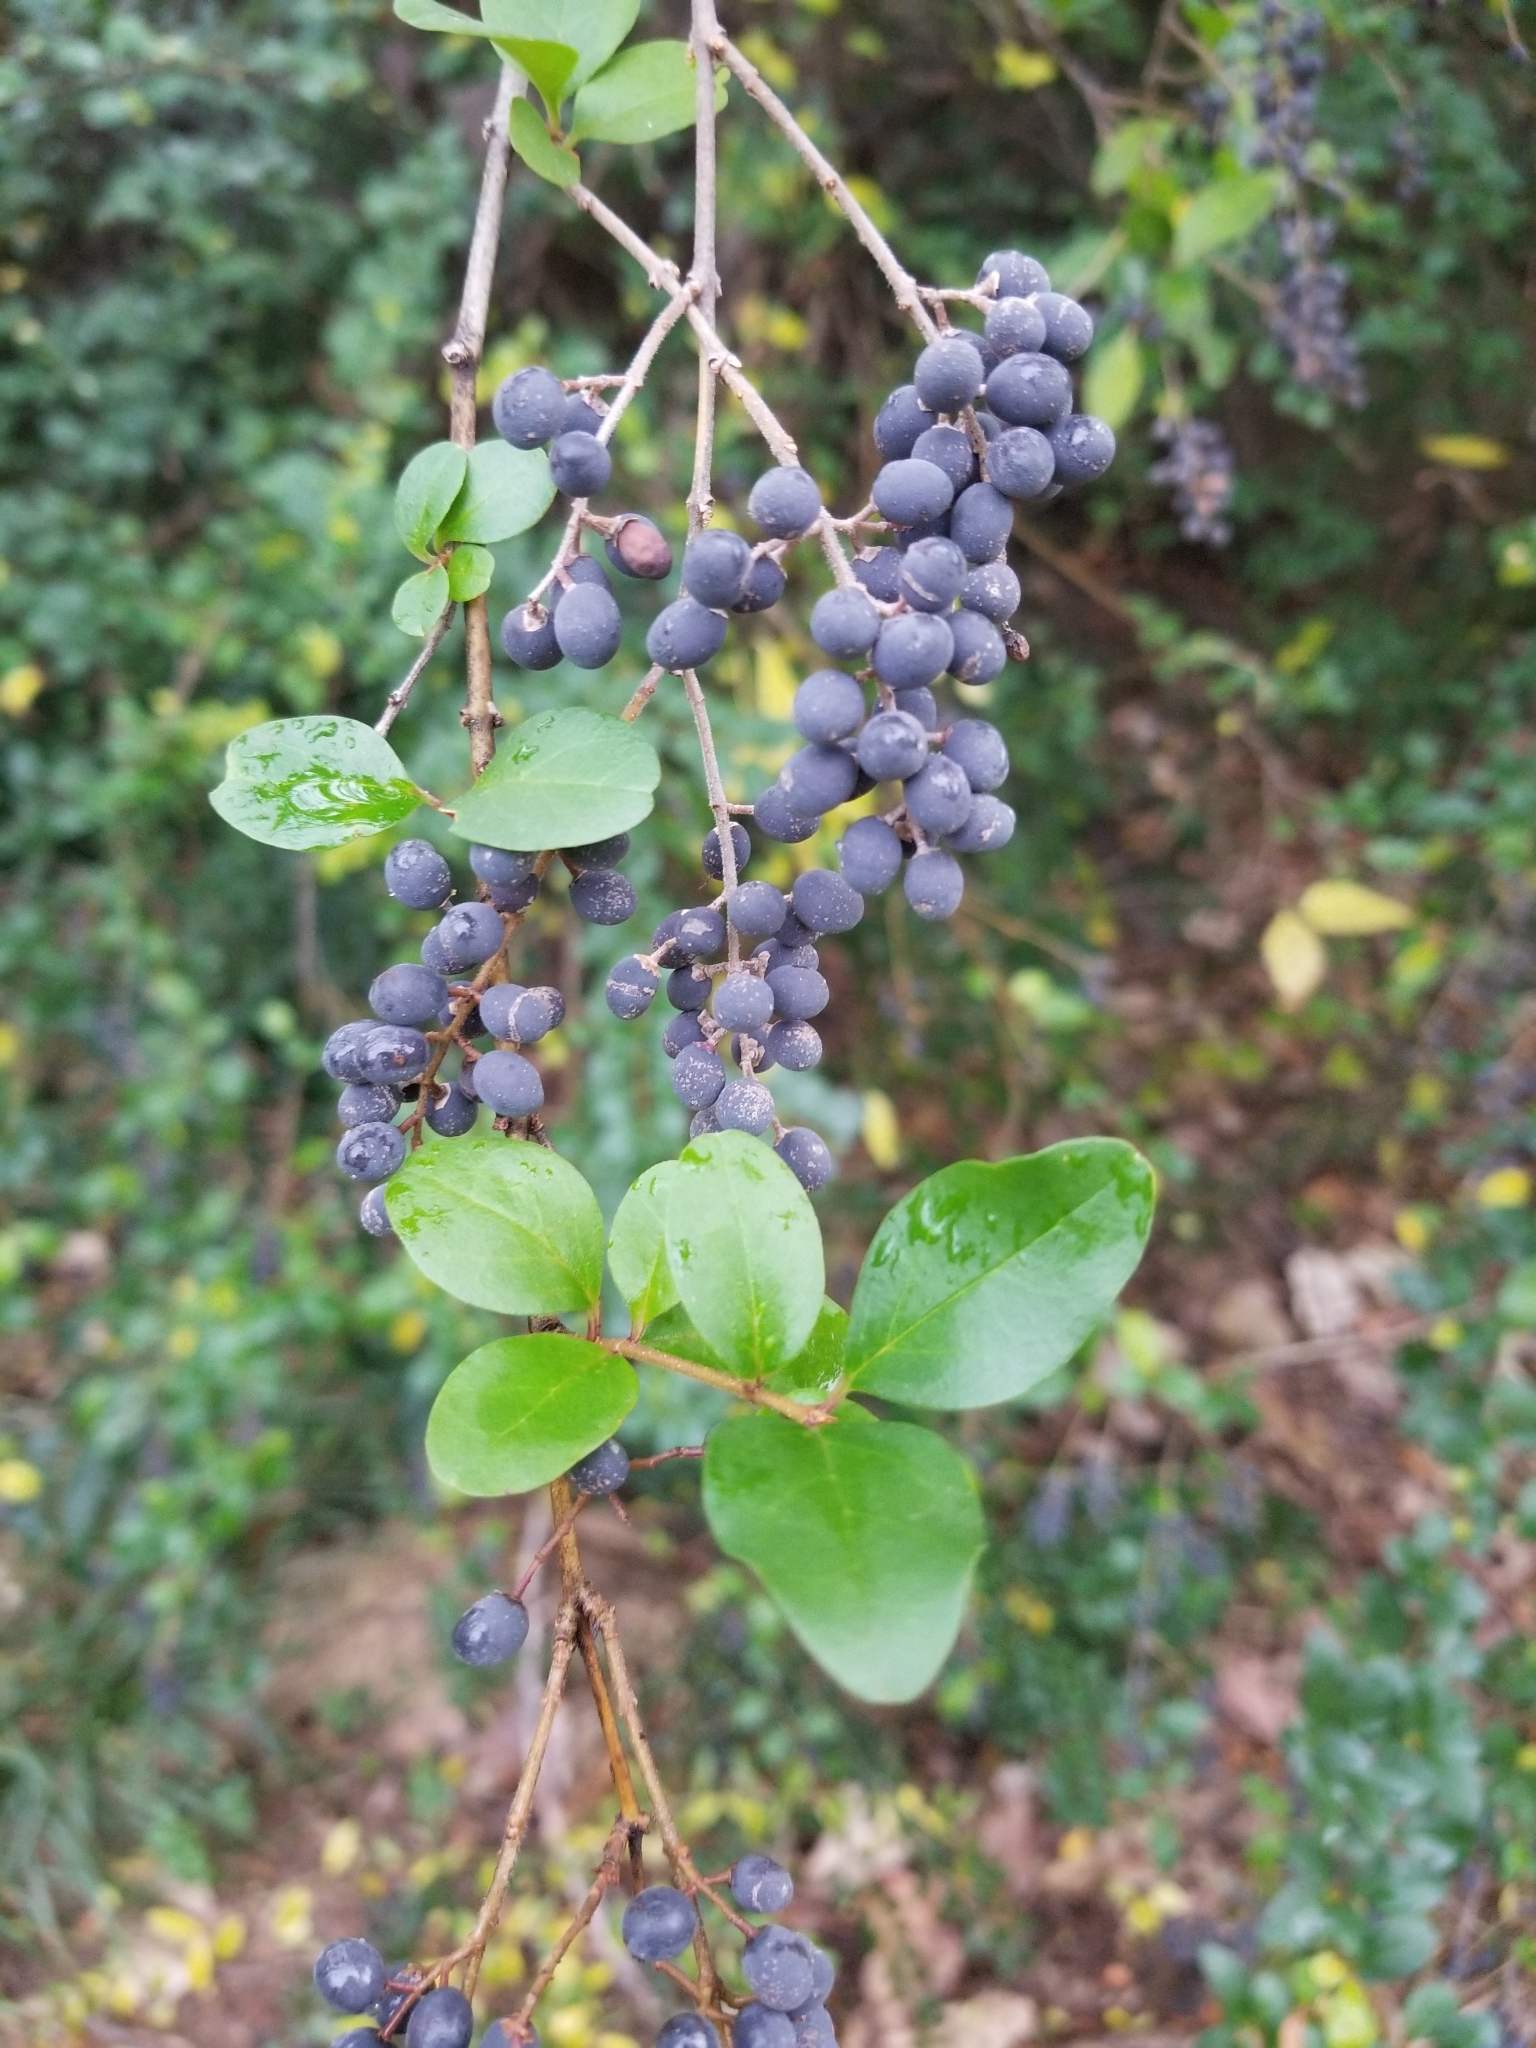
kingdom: Plantae
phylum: Tracheophyta
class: Magnoliopsida
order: Lamiales
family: Oleaceae
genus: Ligustrum
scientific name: Ligustrum sinense
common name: Chinese privet
